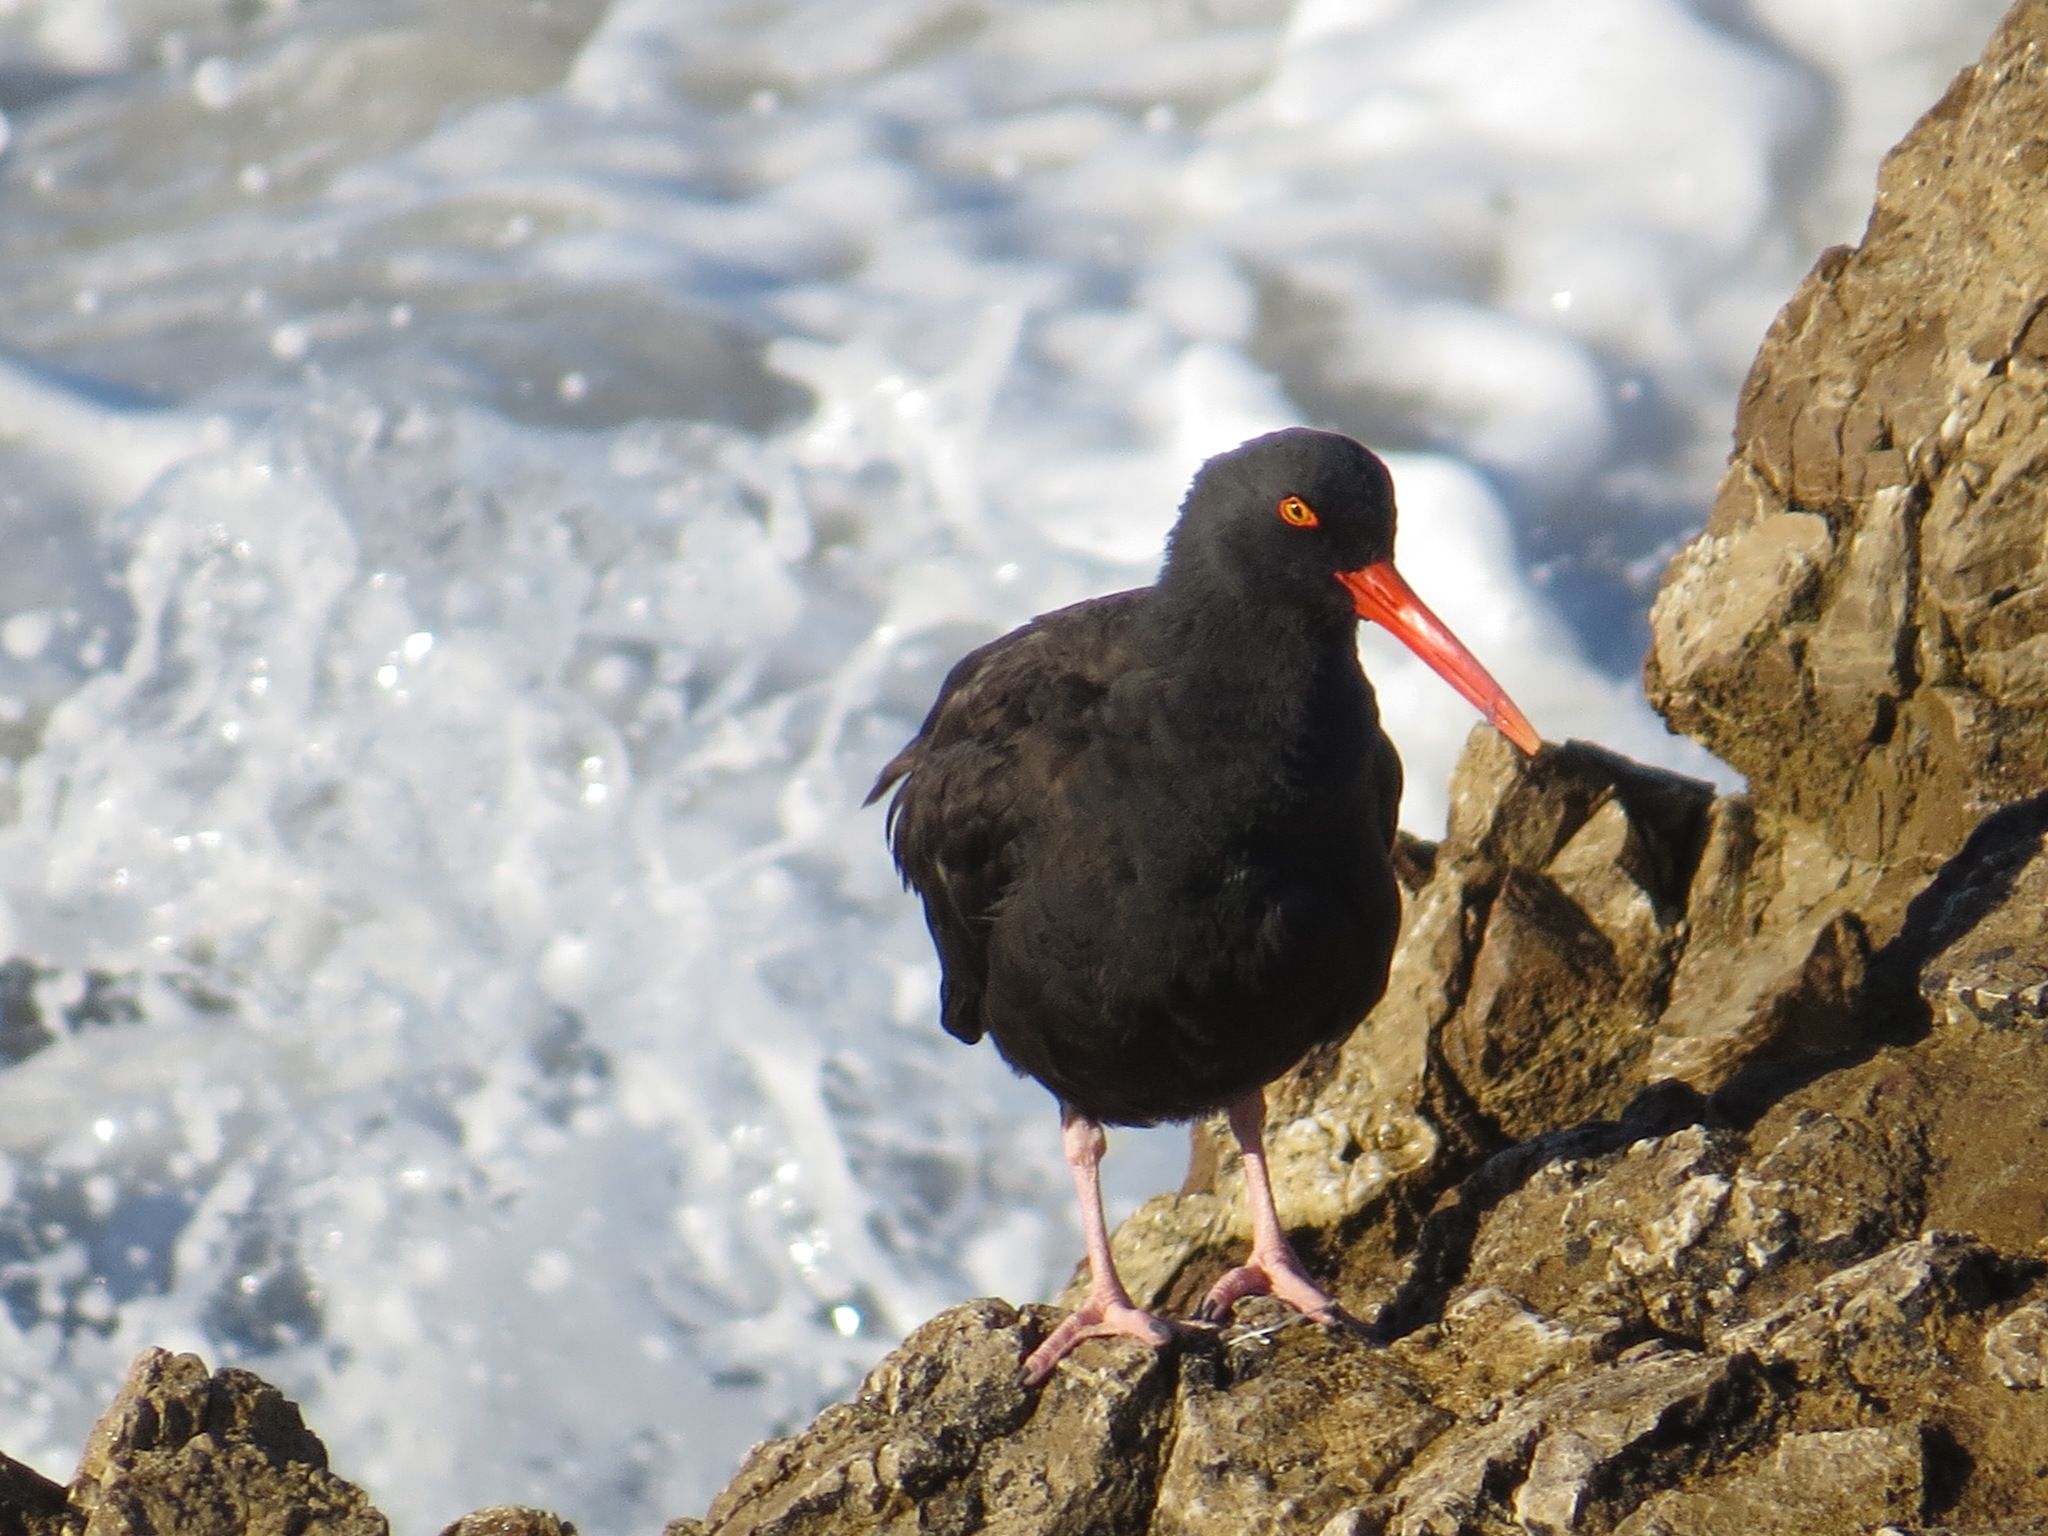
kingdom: Animalia
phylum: Chordata
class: Aves
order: Charadriiformes
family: Haematopodidae
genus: Haematopus
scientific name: Haematopus bachmani
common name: Black oystercatcher
